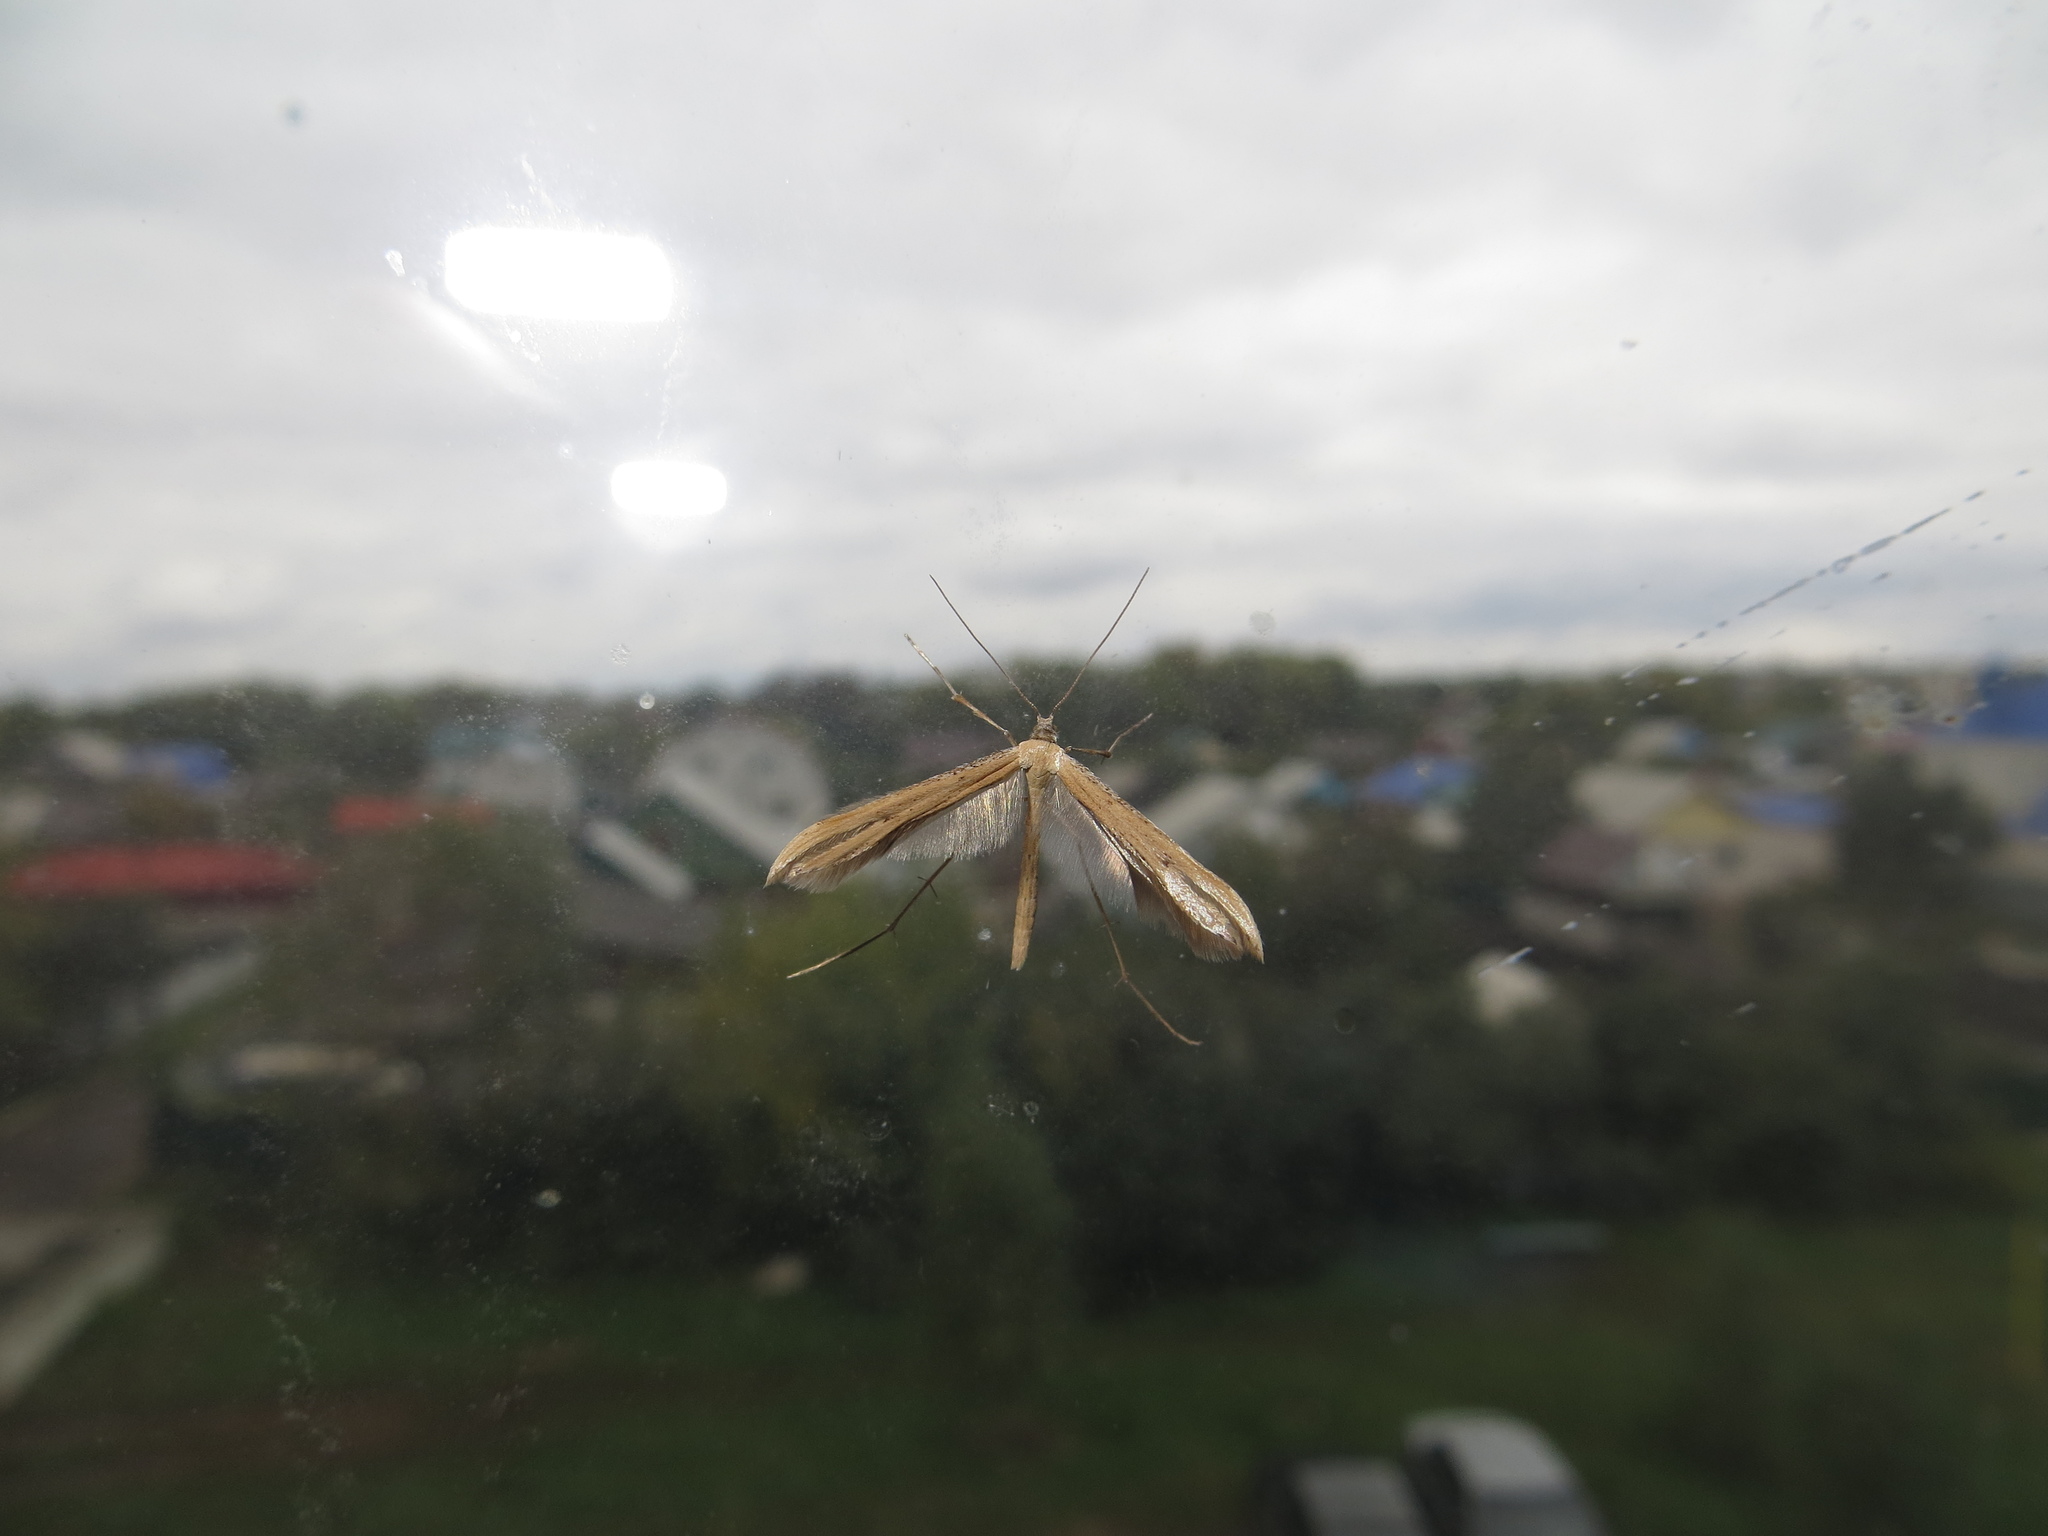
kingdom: Animalia
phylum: Arthropoda
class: Insecta
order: Lepidoptera
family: Pterophoridae
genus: Emmelina
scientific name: Emmelina monodactyla
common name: Common plume
